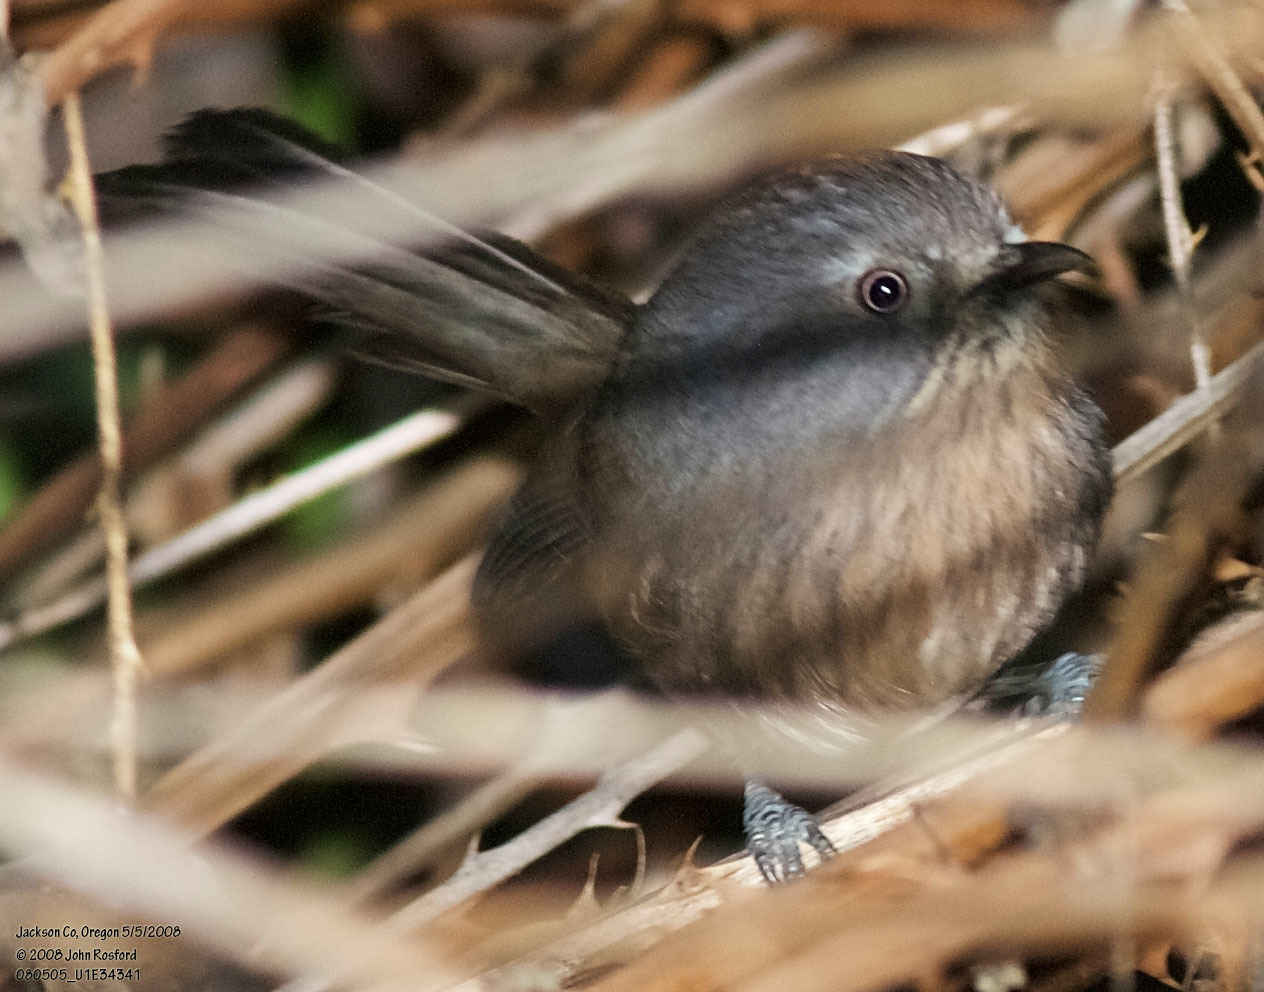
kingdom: Animalia
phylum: Chordata
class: Aves
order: Passeriformes
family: Sylviidae
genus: Chamaea
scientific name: Chamaea fasciata
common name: Wrentit
